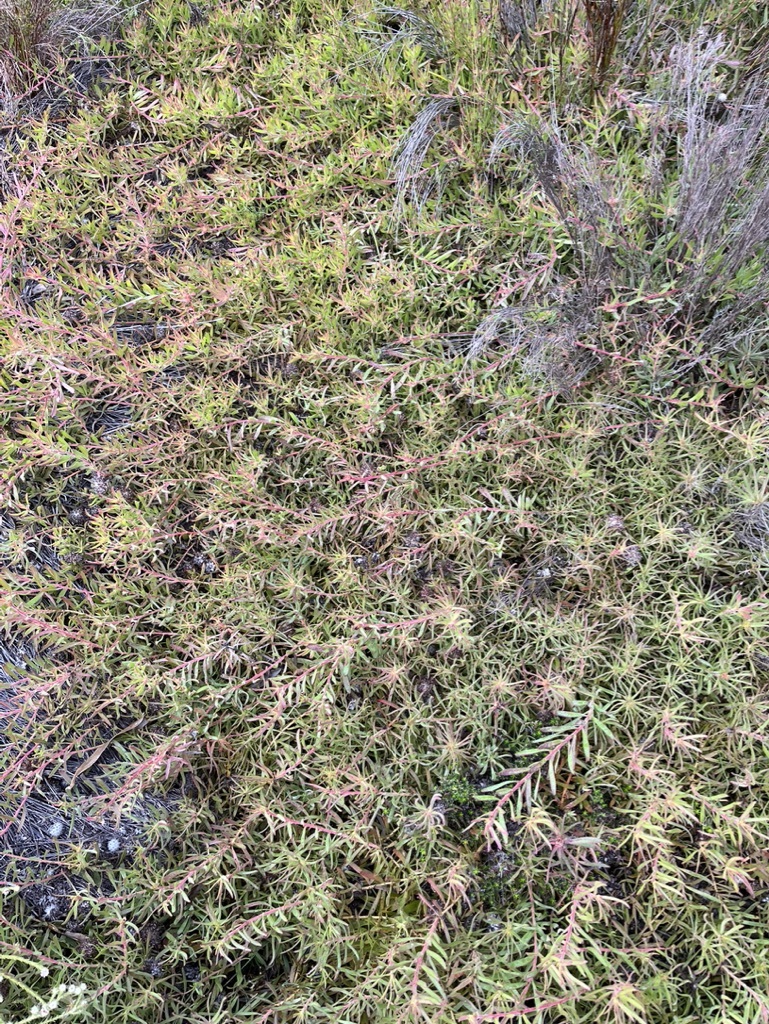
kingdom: Plantae
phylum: Tracheophyta
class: Magnoliopsida
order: Proteales
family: Proteaceae
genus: Leucospermum
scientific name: Leucospermum pedunculatum
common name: White-trailing pincushion
